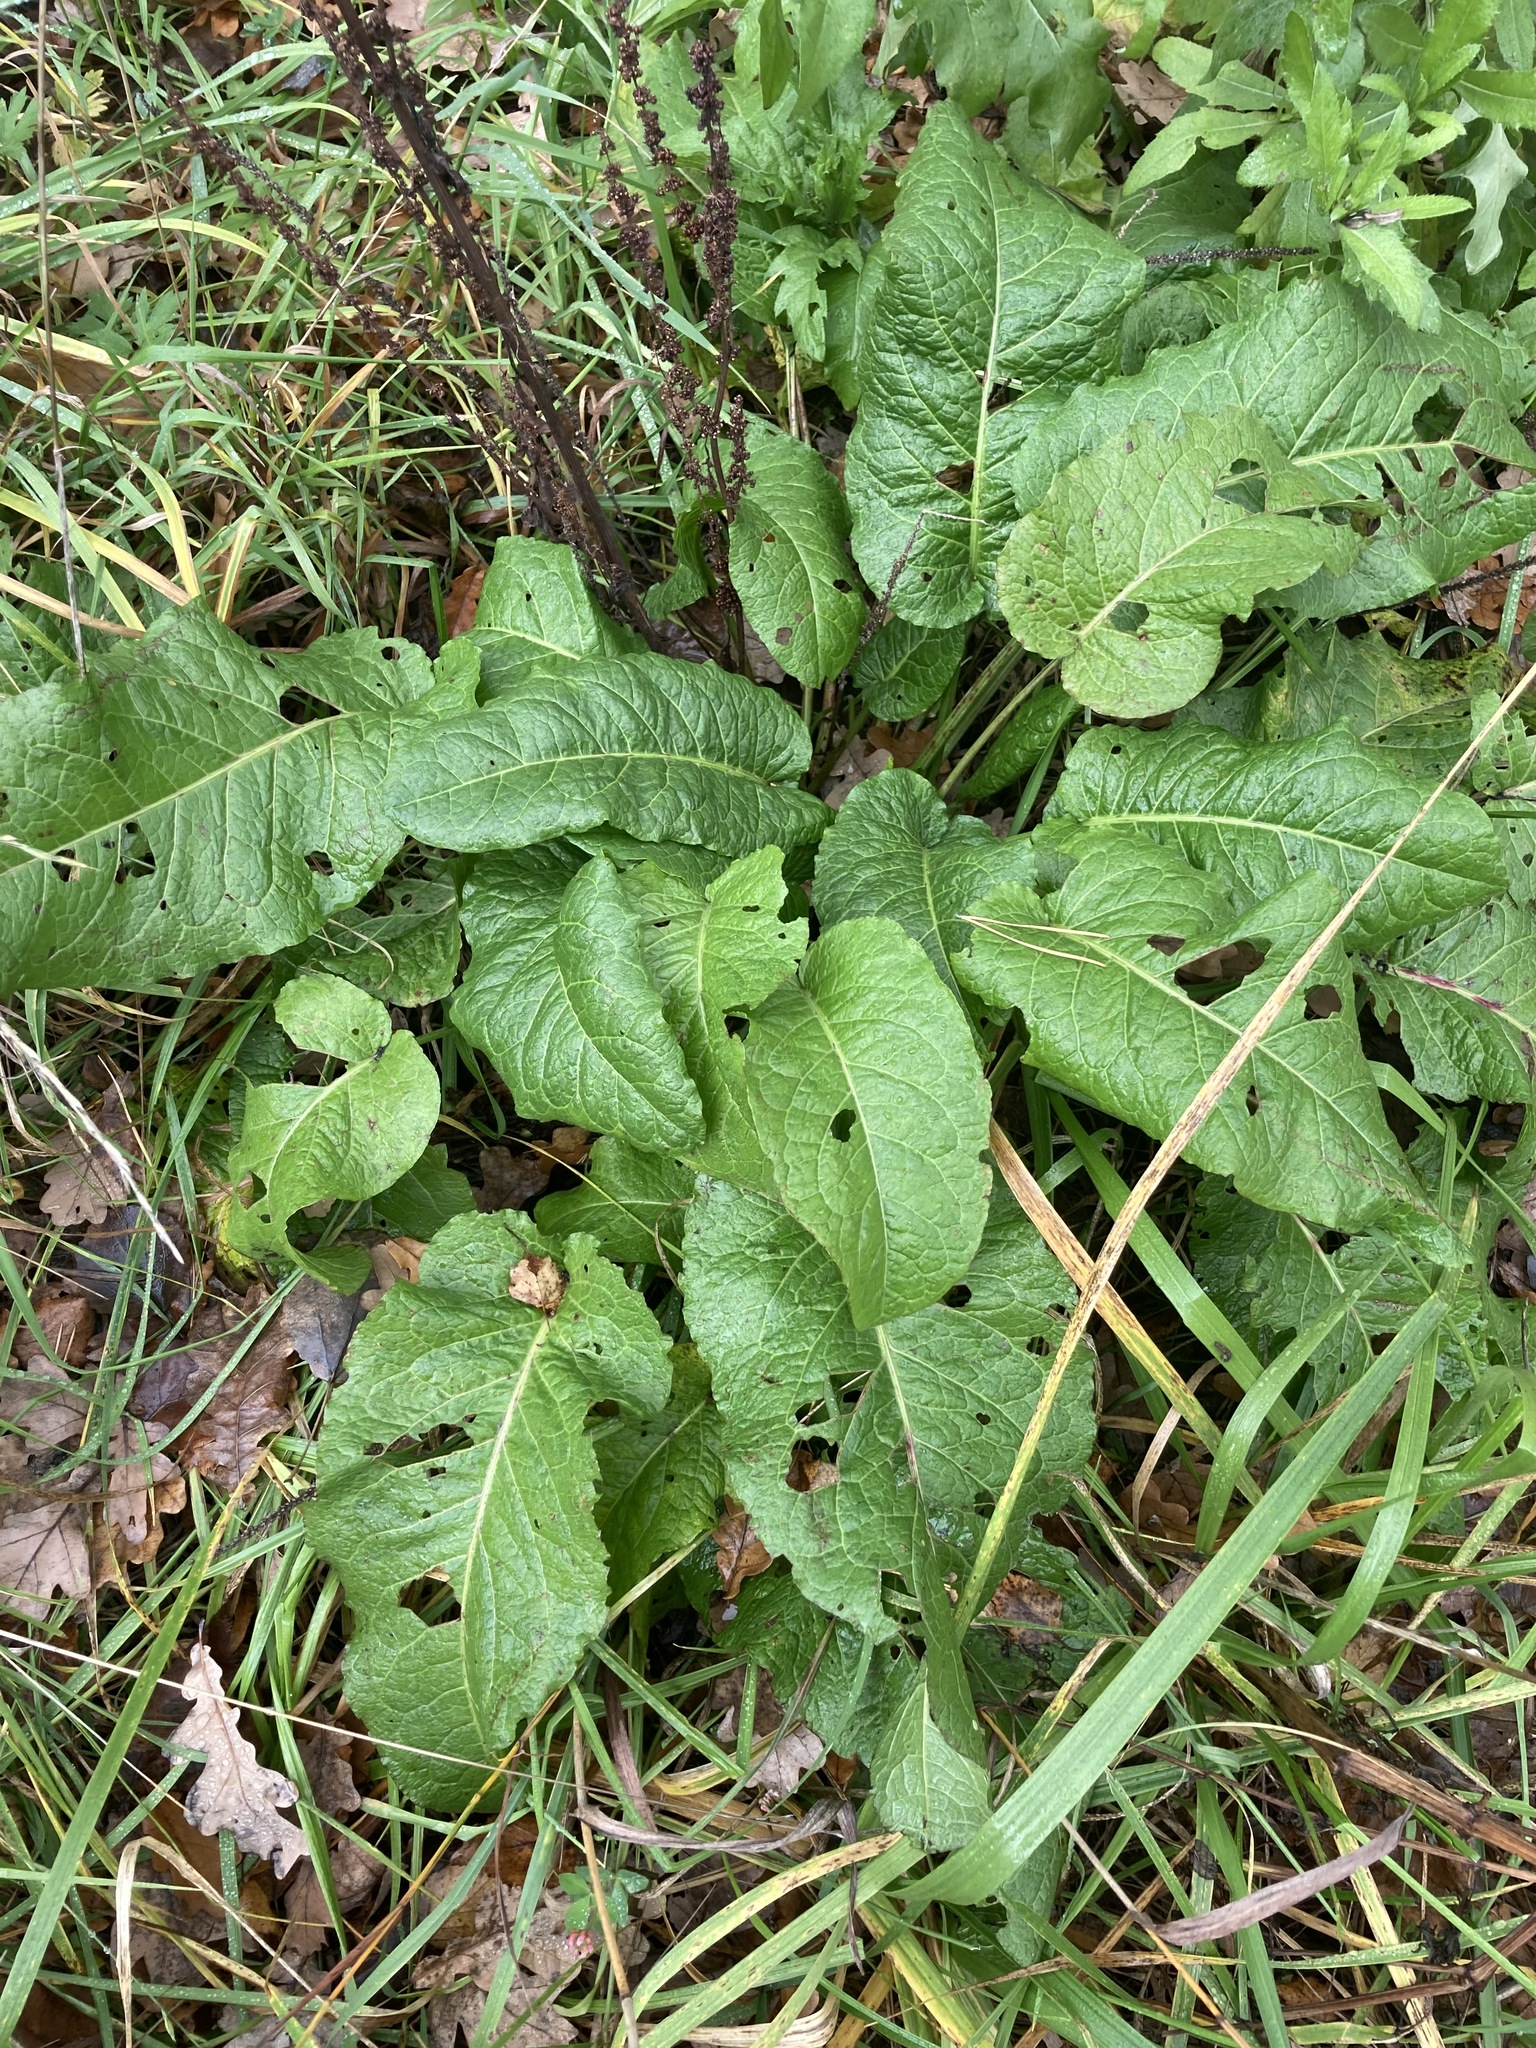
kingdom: Plantae
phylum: Tracheophyta
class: Magnoliopsida
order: Caryophyllales
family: Polygonaceae
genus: Rumex
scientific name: Rumex obtusifolius
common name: Bitter dock
